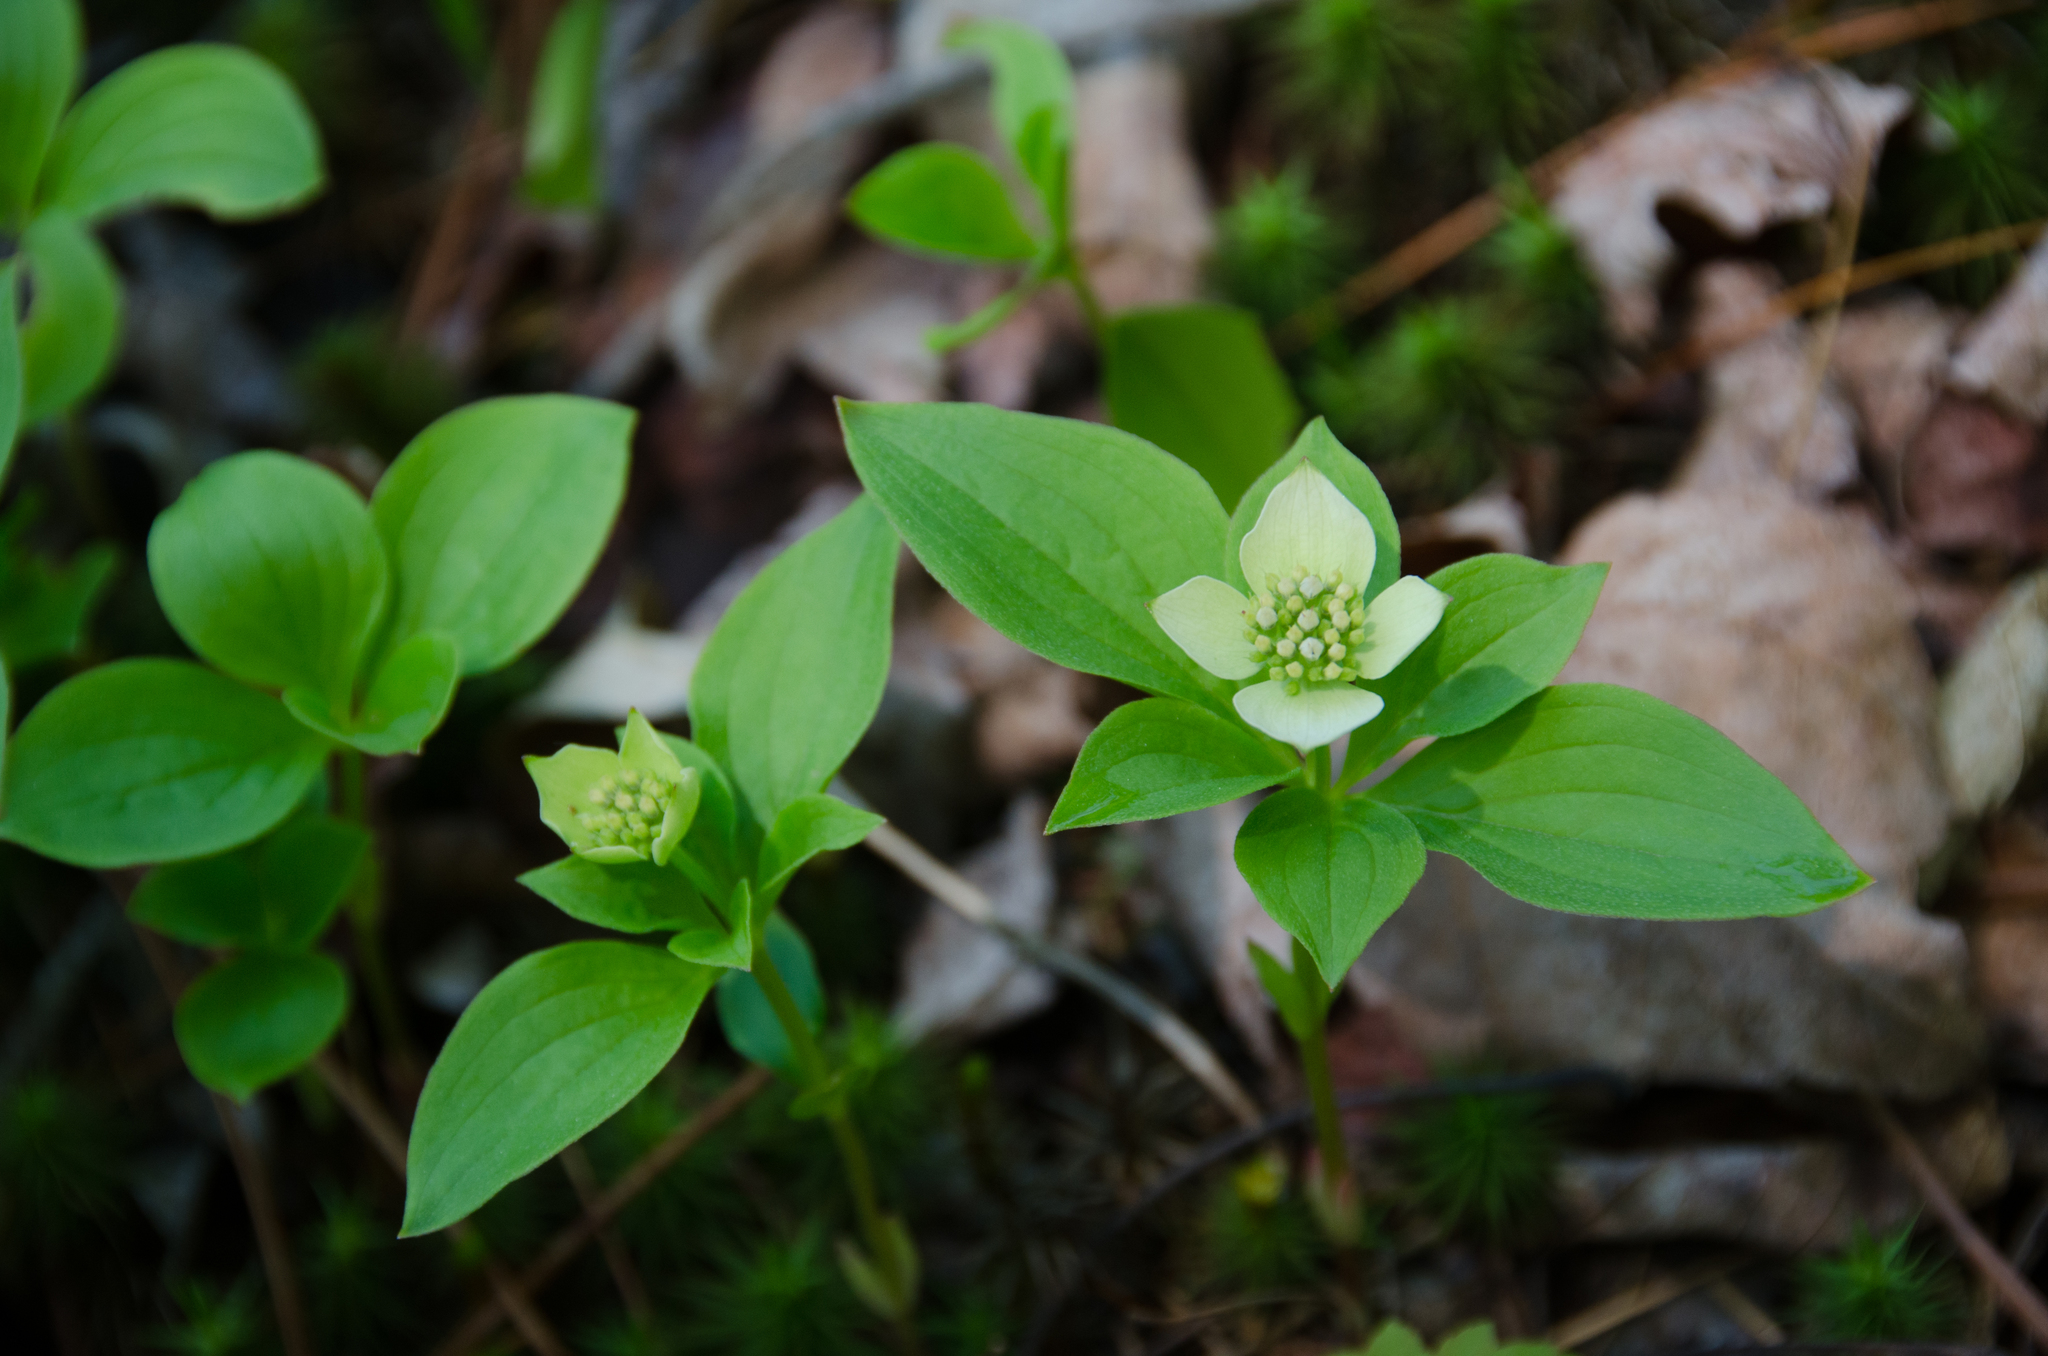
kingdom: Plantae
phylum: Tracheophyta
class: Magnoliopsida
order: Cornales
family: Cornaceae
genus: Cornus
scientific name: Cornus canadensis
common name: Creeping dogwood
